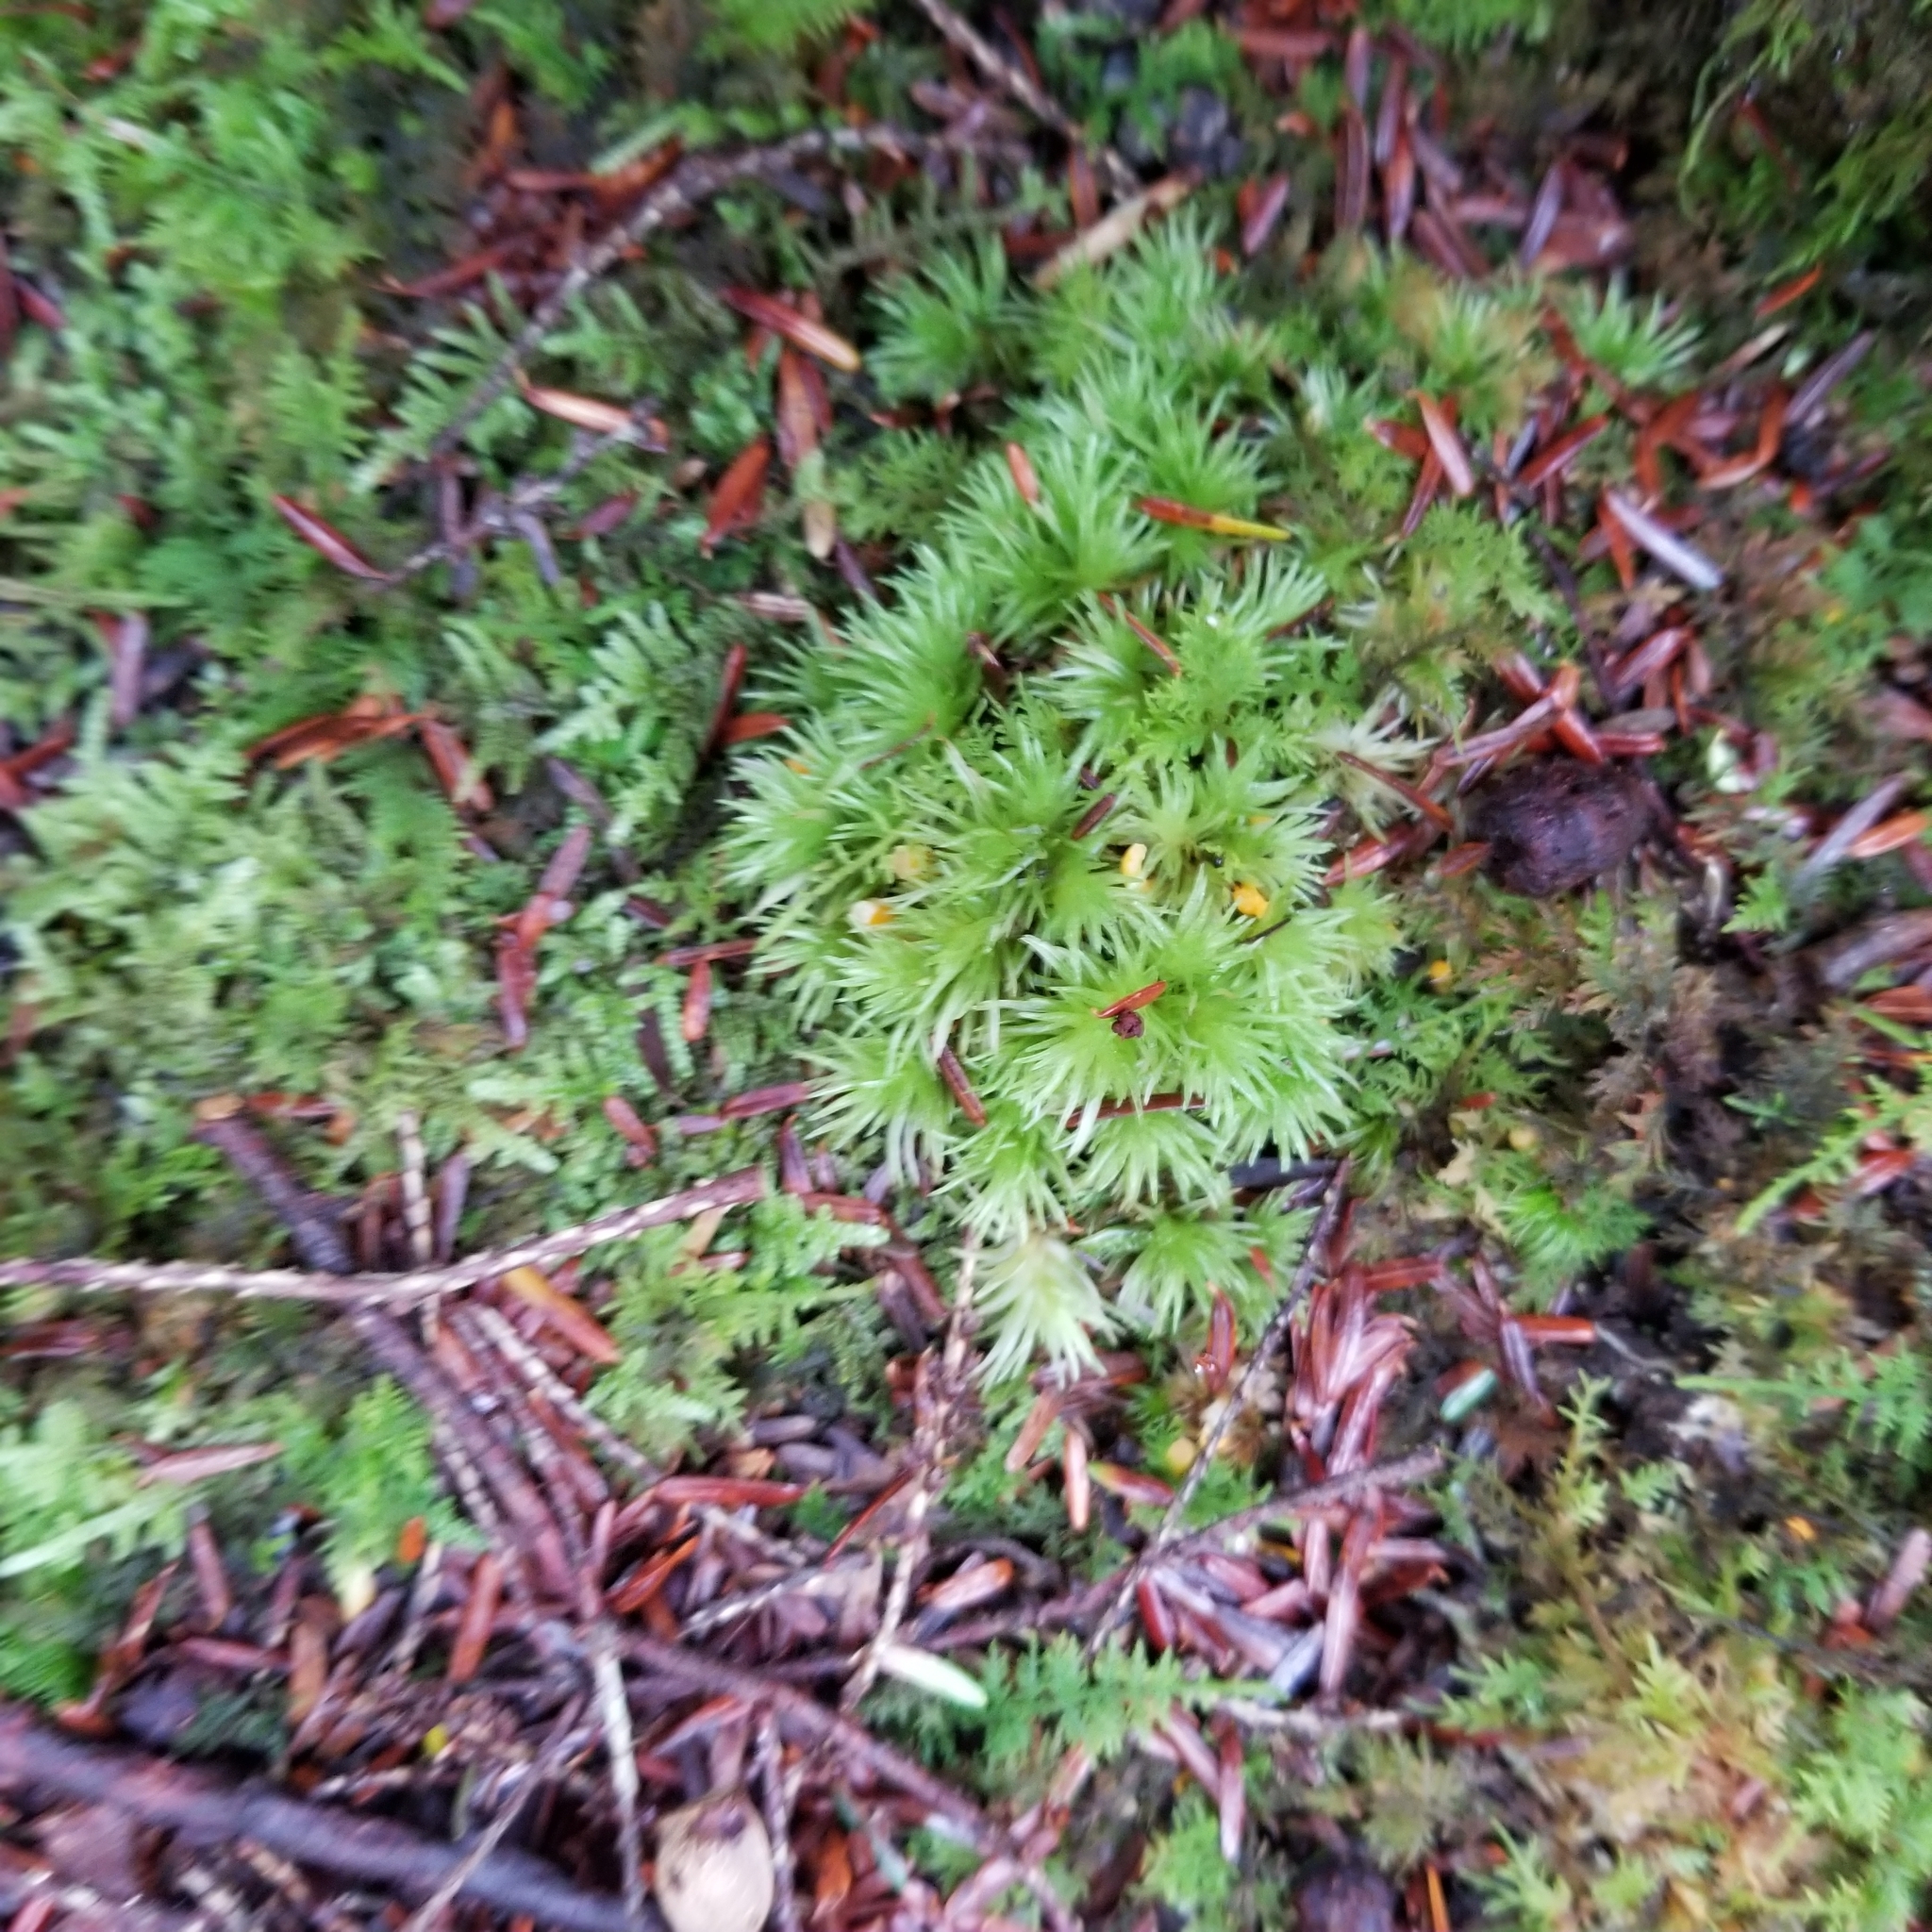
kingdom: Plantae
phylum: Bryophyta
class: Bryopsida
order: Dicranales
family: Leucobryaceae
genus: Leucobryum
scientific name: Leucobryum glaucum
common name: Large white-moss
